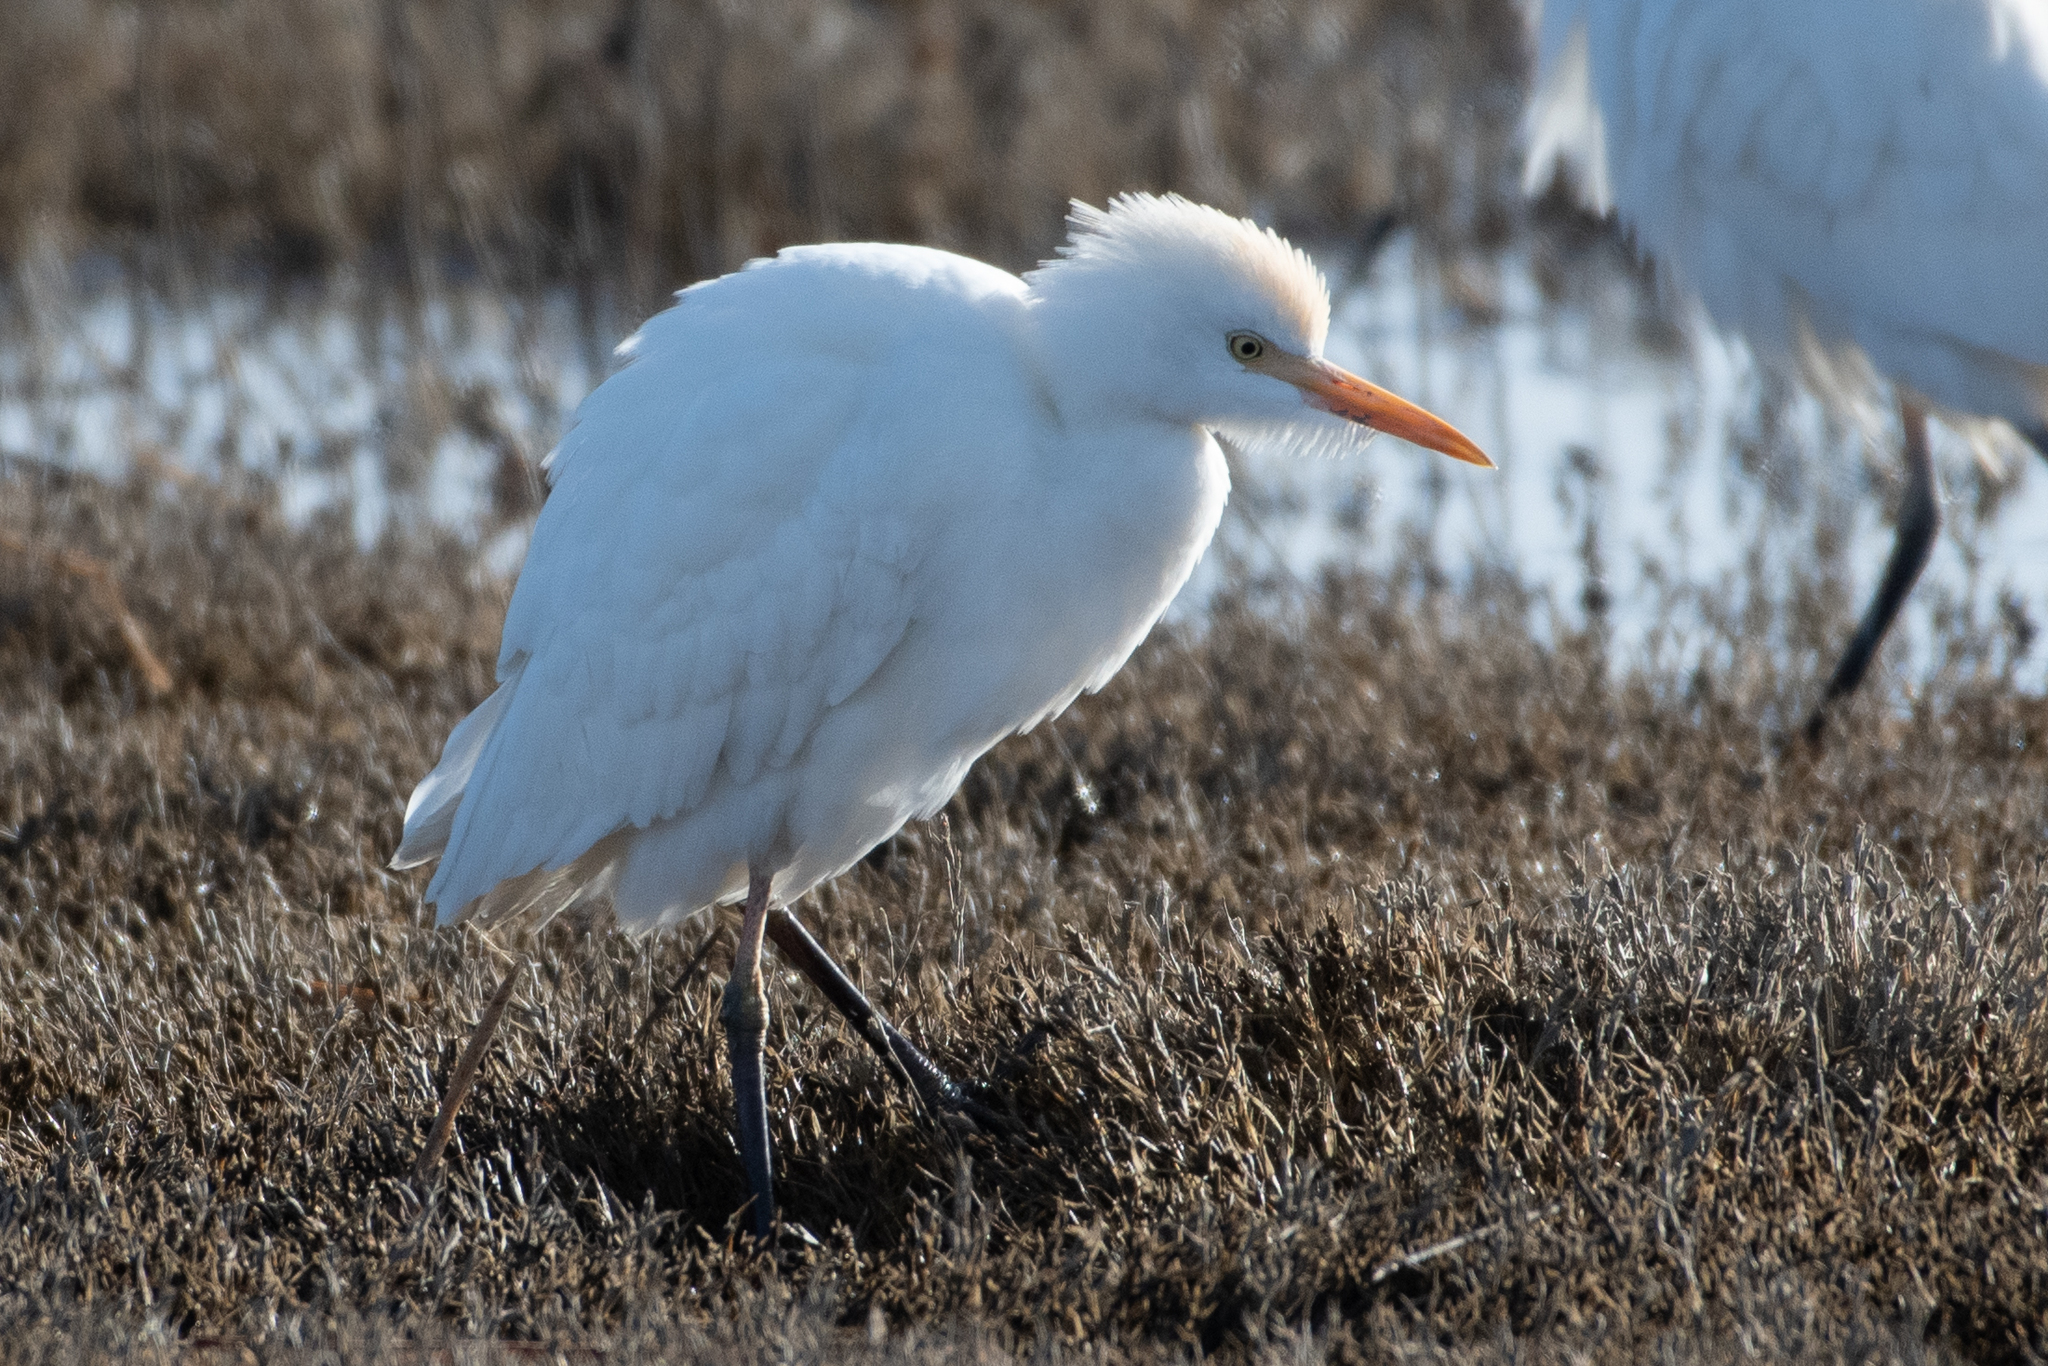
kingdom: Animalia
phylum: Chordata
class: Aves
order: Pelecaniformes
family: Ardeidae
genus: Bubulcus
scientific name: Bubulcus ibis
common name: Cattle egret
